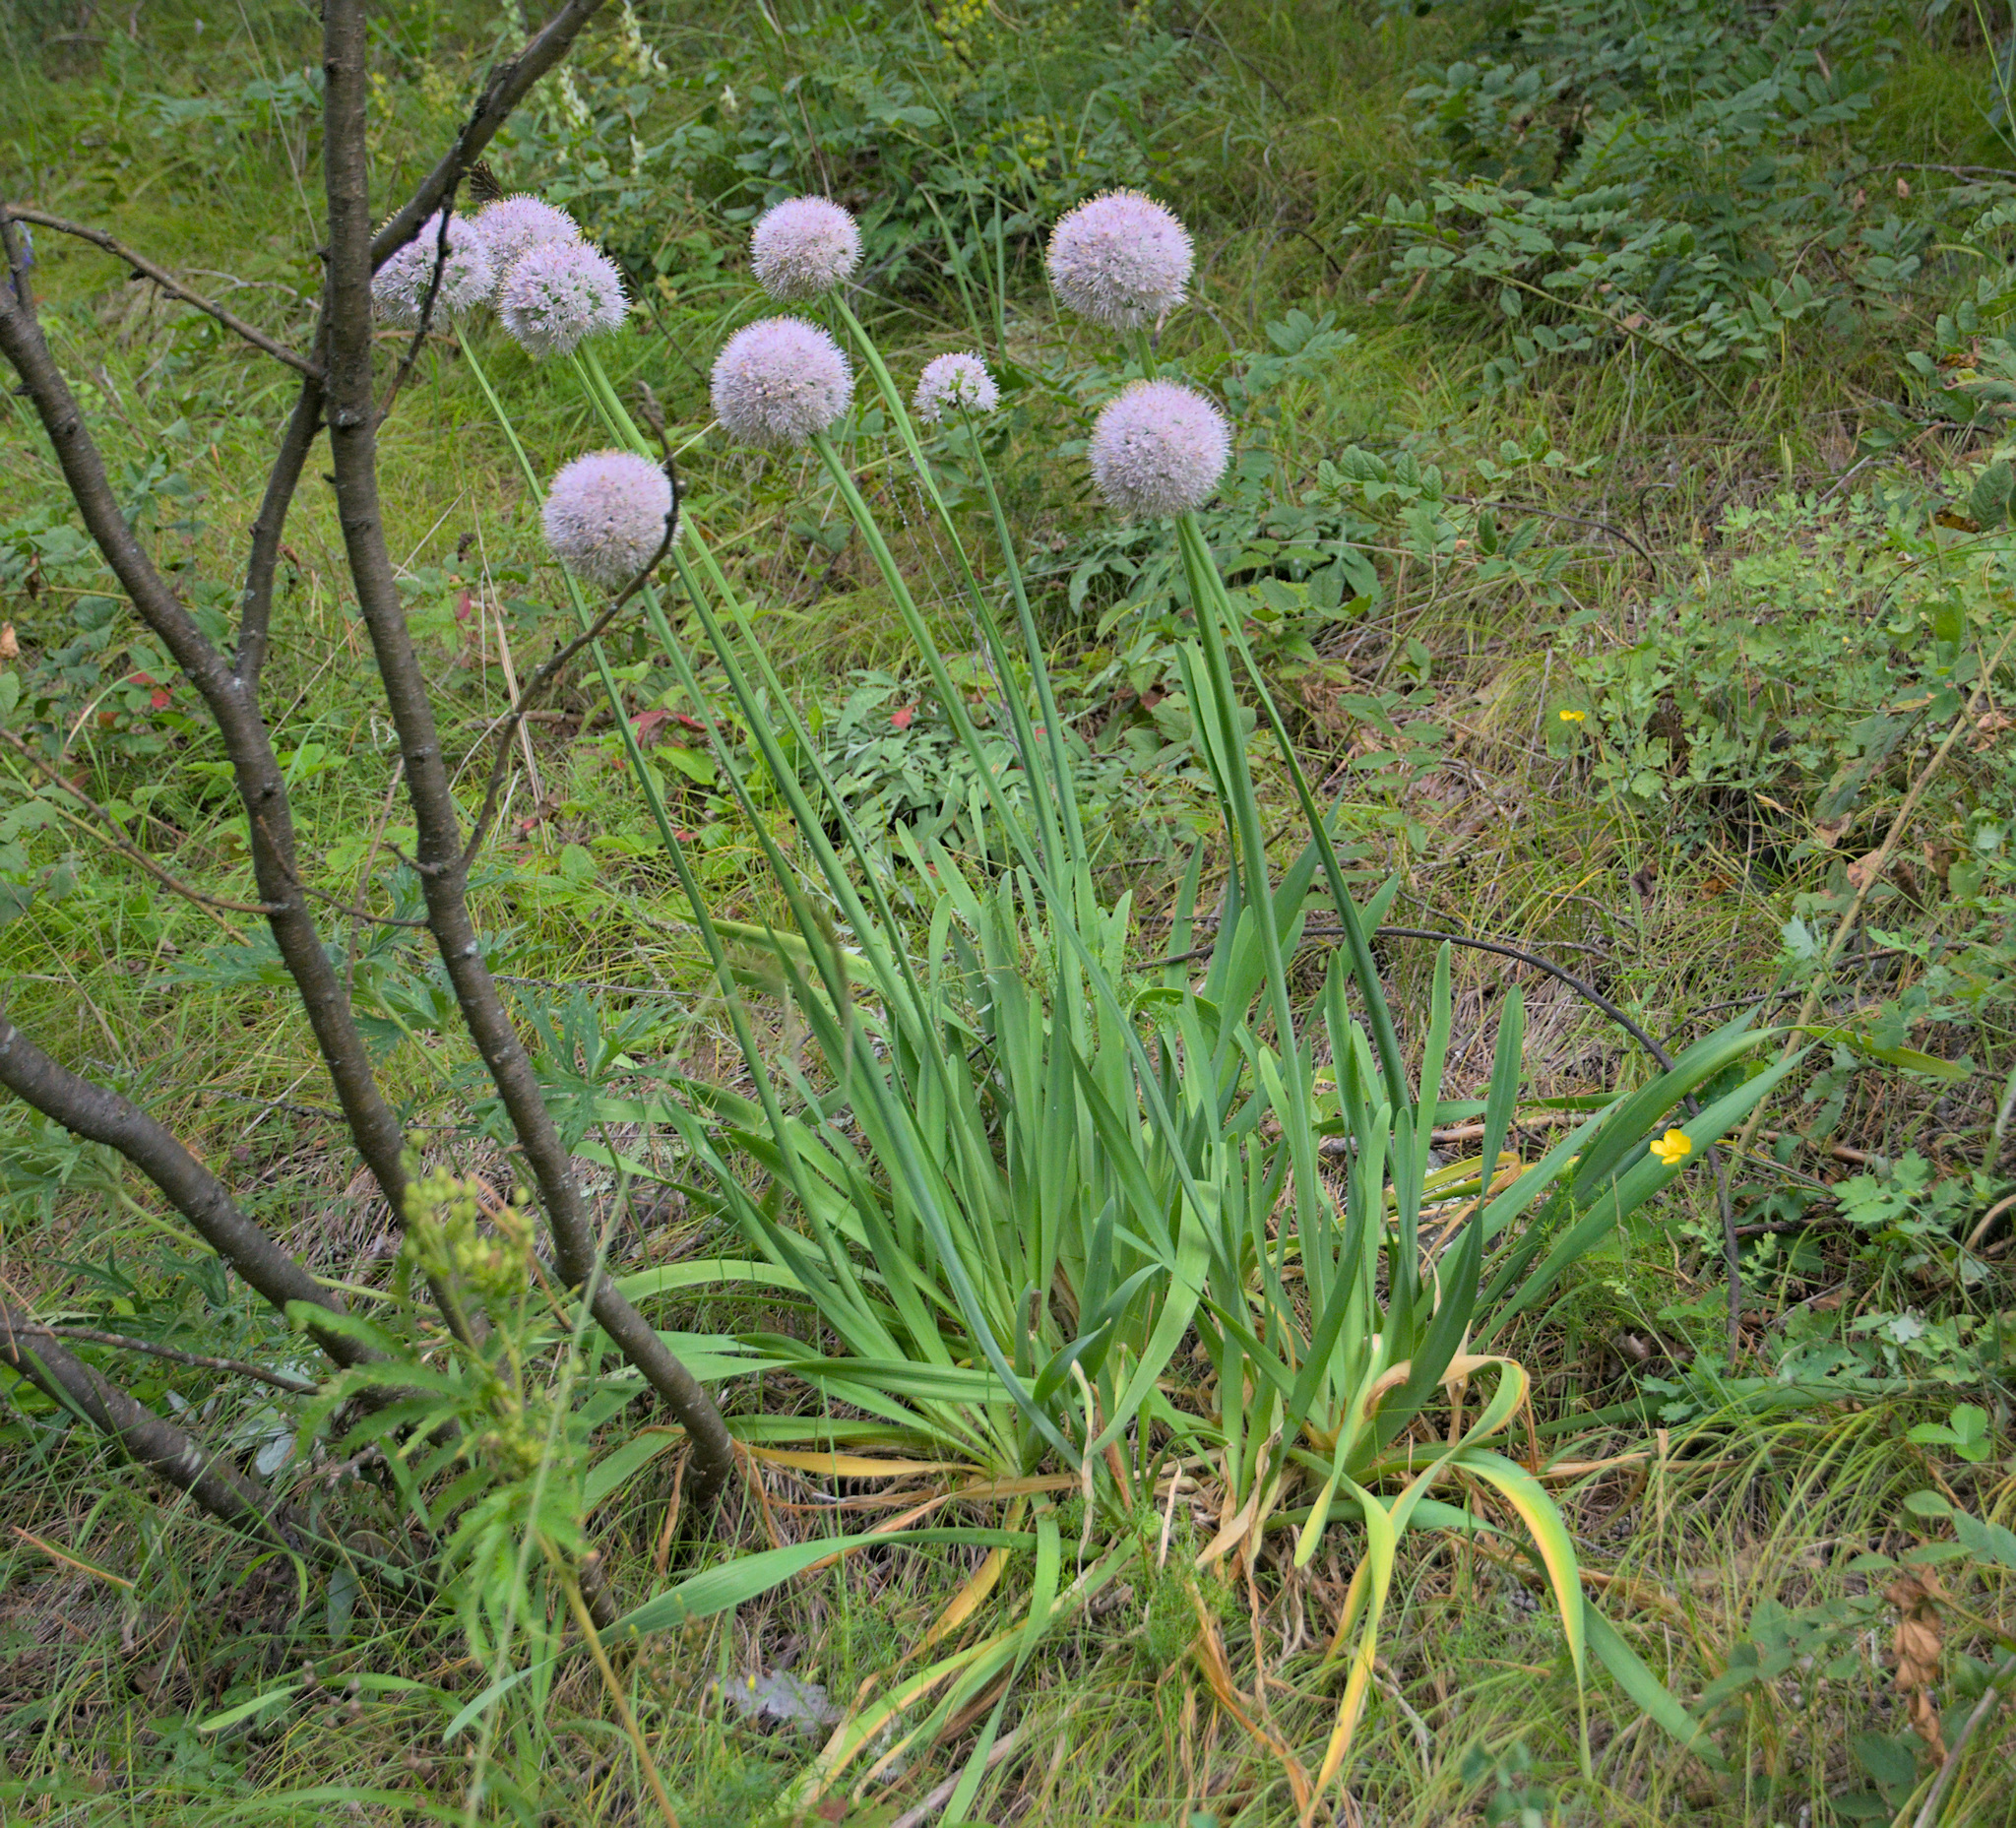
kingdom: Plantae
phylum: Tracheophyta
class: Liliopsida
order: Asparagales
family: Amaryllidaceae
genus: Allium
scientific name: Allium nutans
